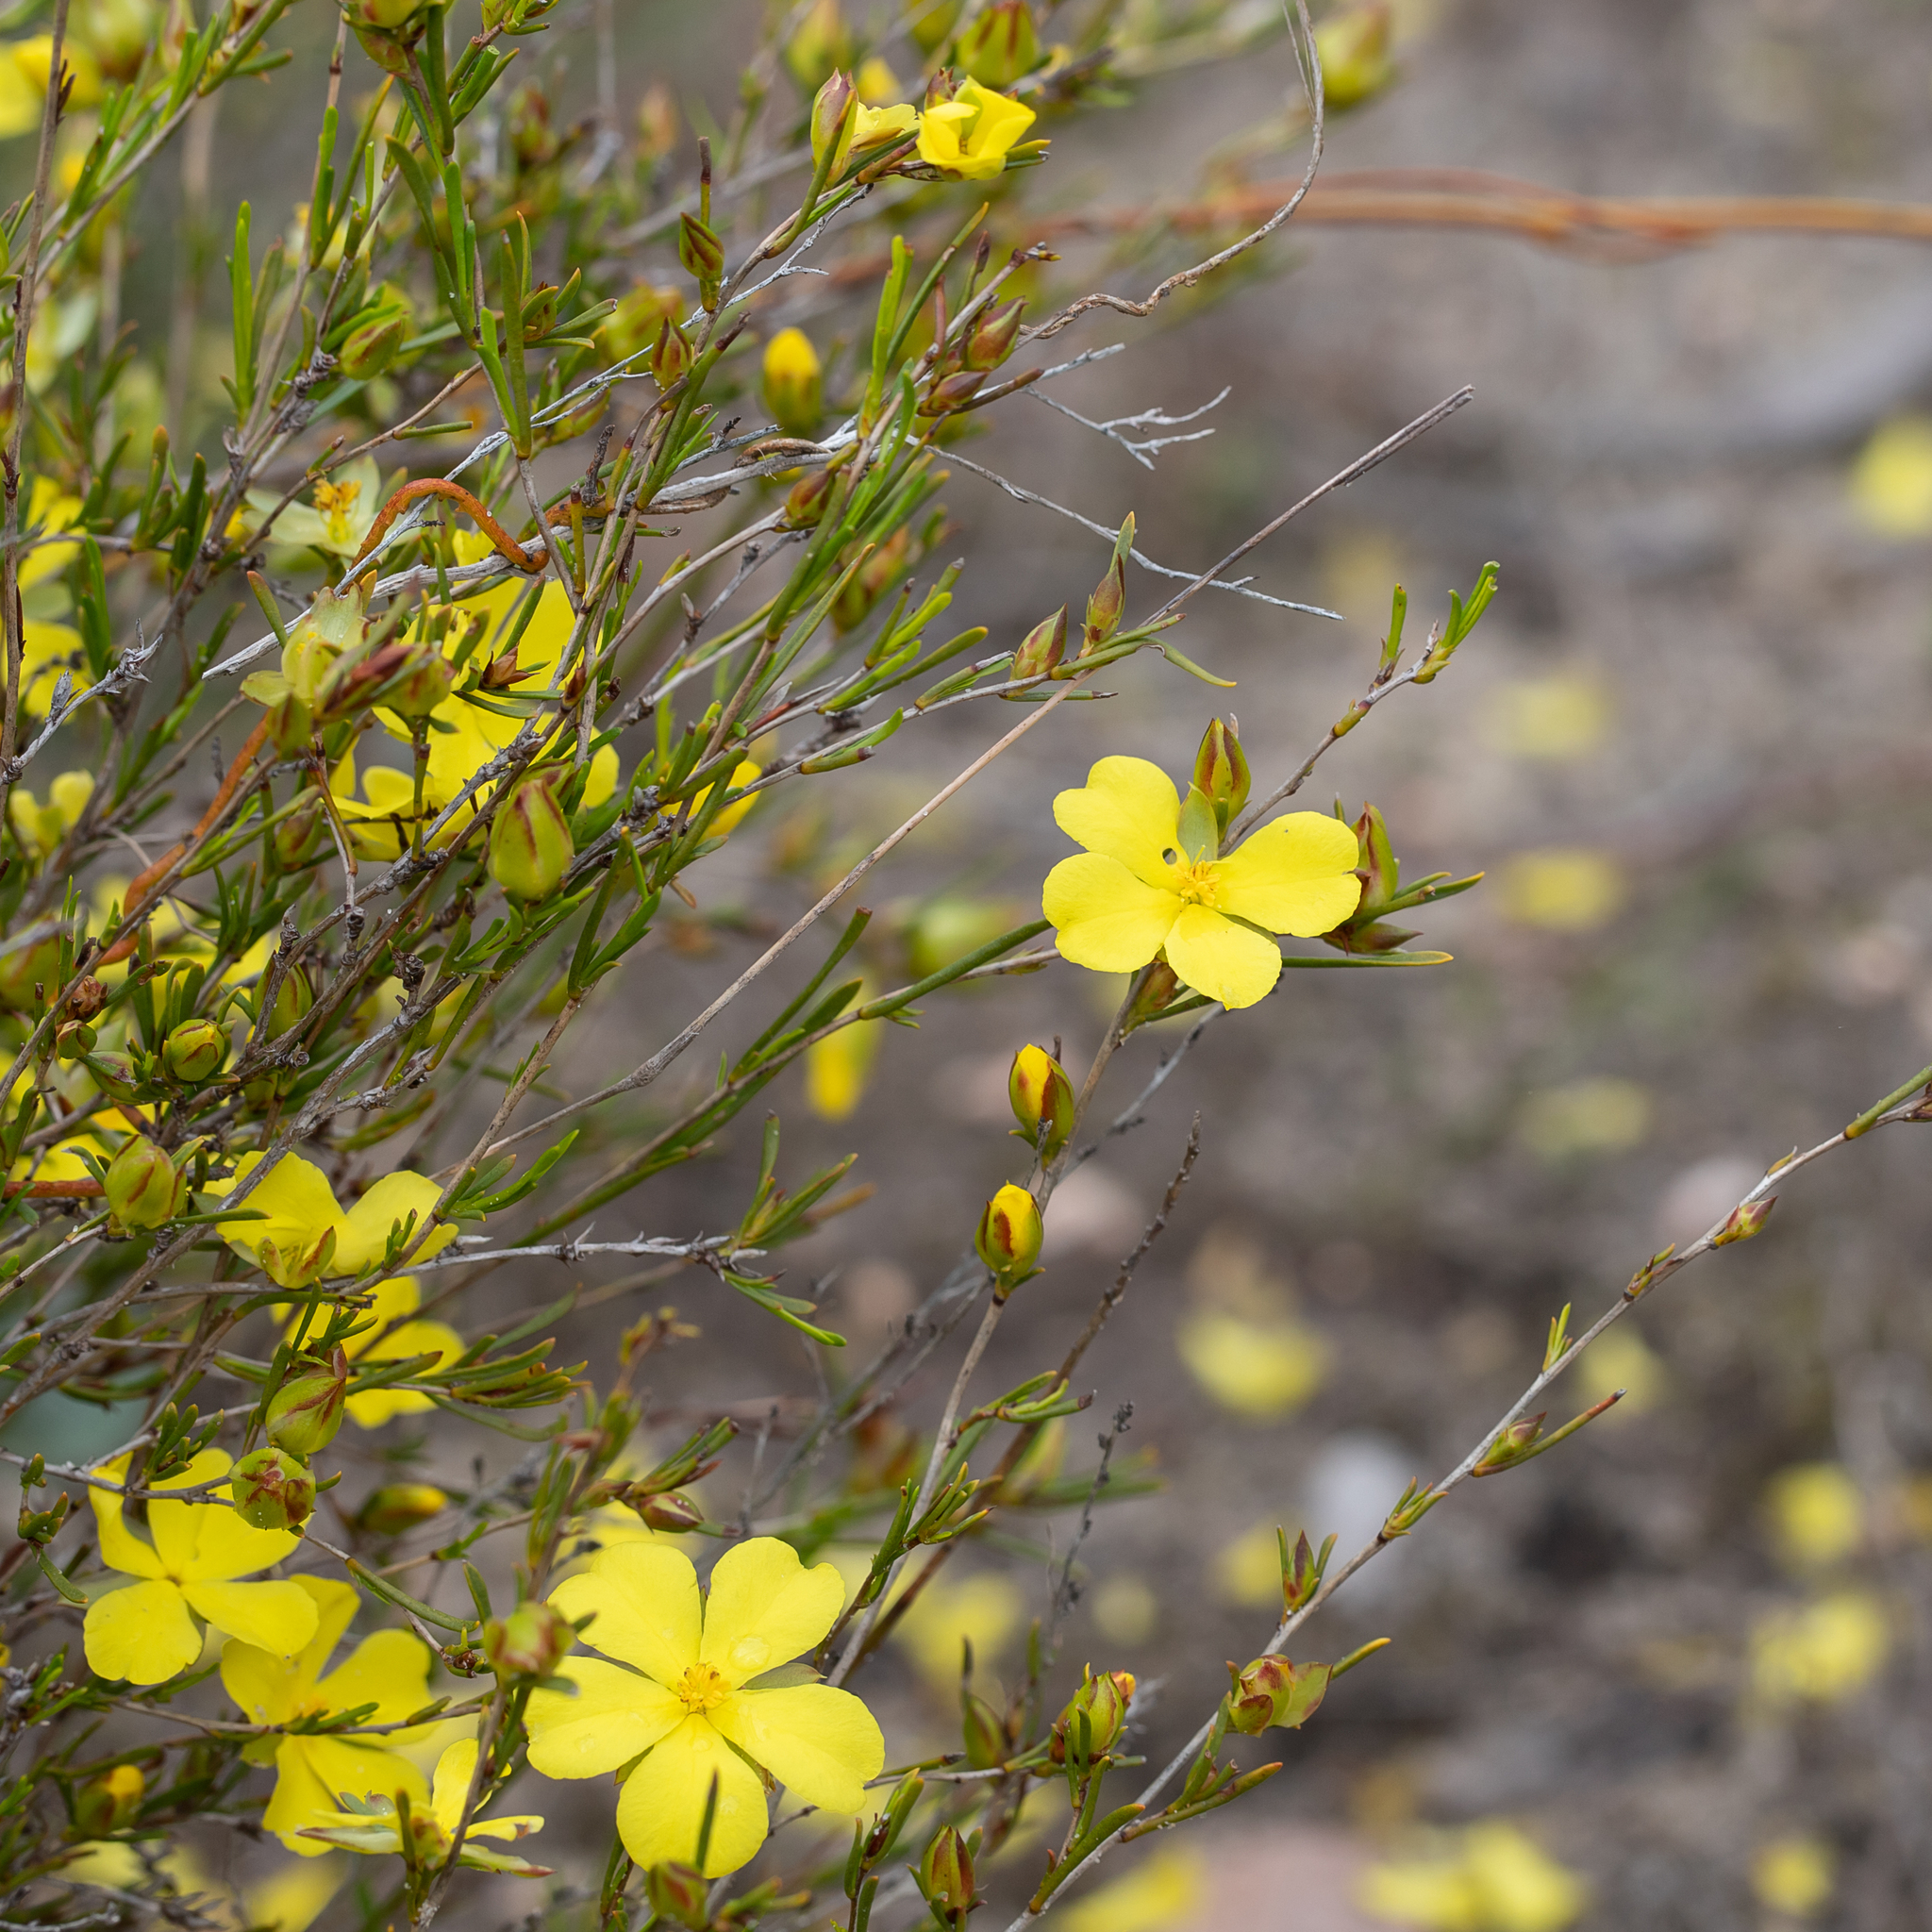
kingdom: Plantae
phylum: Tracheophyta
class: Magnoliopsida
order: Dilleniales
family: Dilleniaceae
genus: Hibbertia
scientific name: Hibbertia virgata
